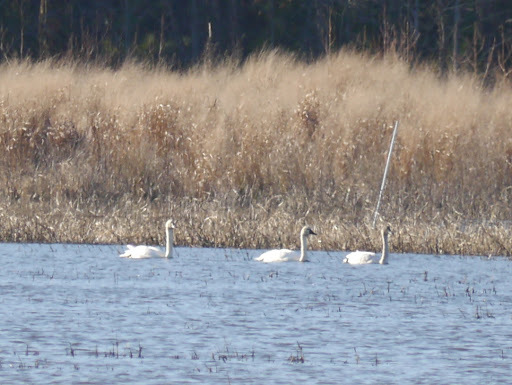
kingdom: Animalia
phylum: Chordata
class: Aves
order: Anseriformes
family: Anatidae
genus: Cygnus
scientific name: Cygnus columbianus
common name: Tundra swan
